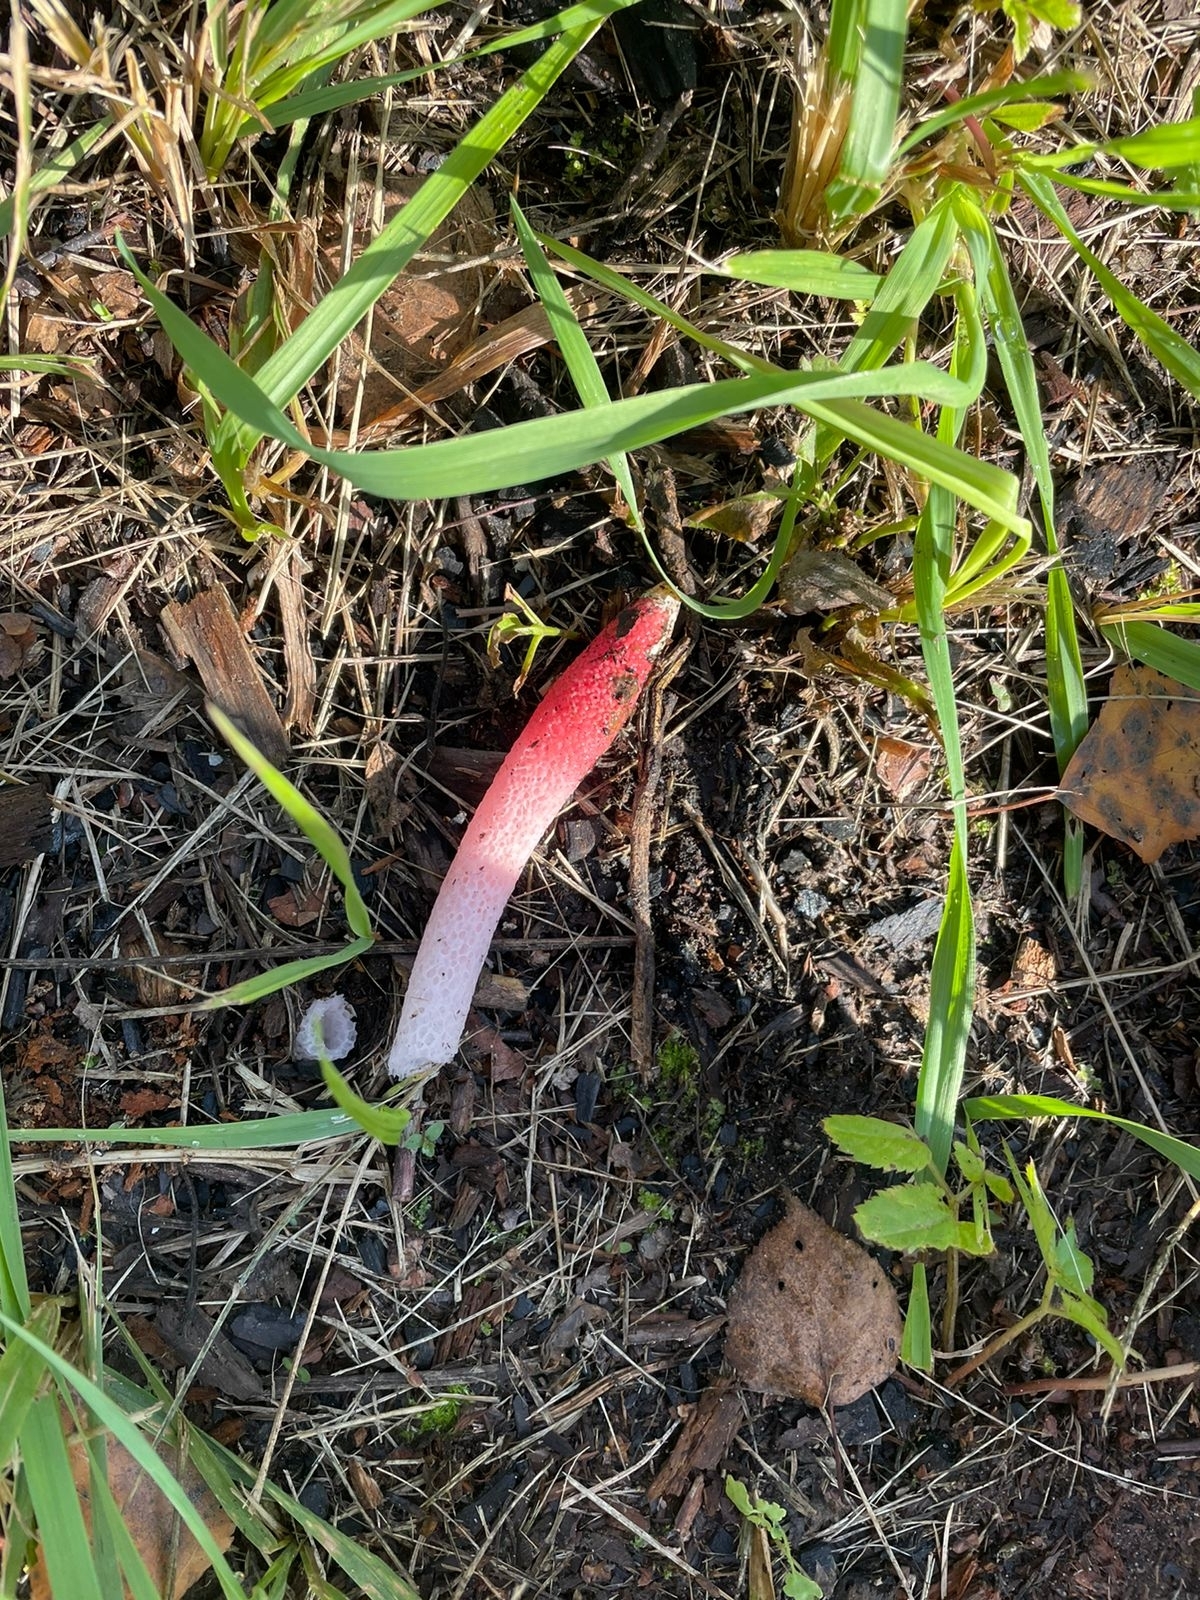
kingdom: Fungi
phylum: Basidiomycota
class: Agaricomycetes
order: Phallales
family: Phallaceae
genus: Mutinus
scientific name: Mutinus ravenelii
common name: Red stinkhorn
